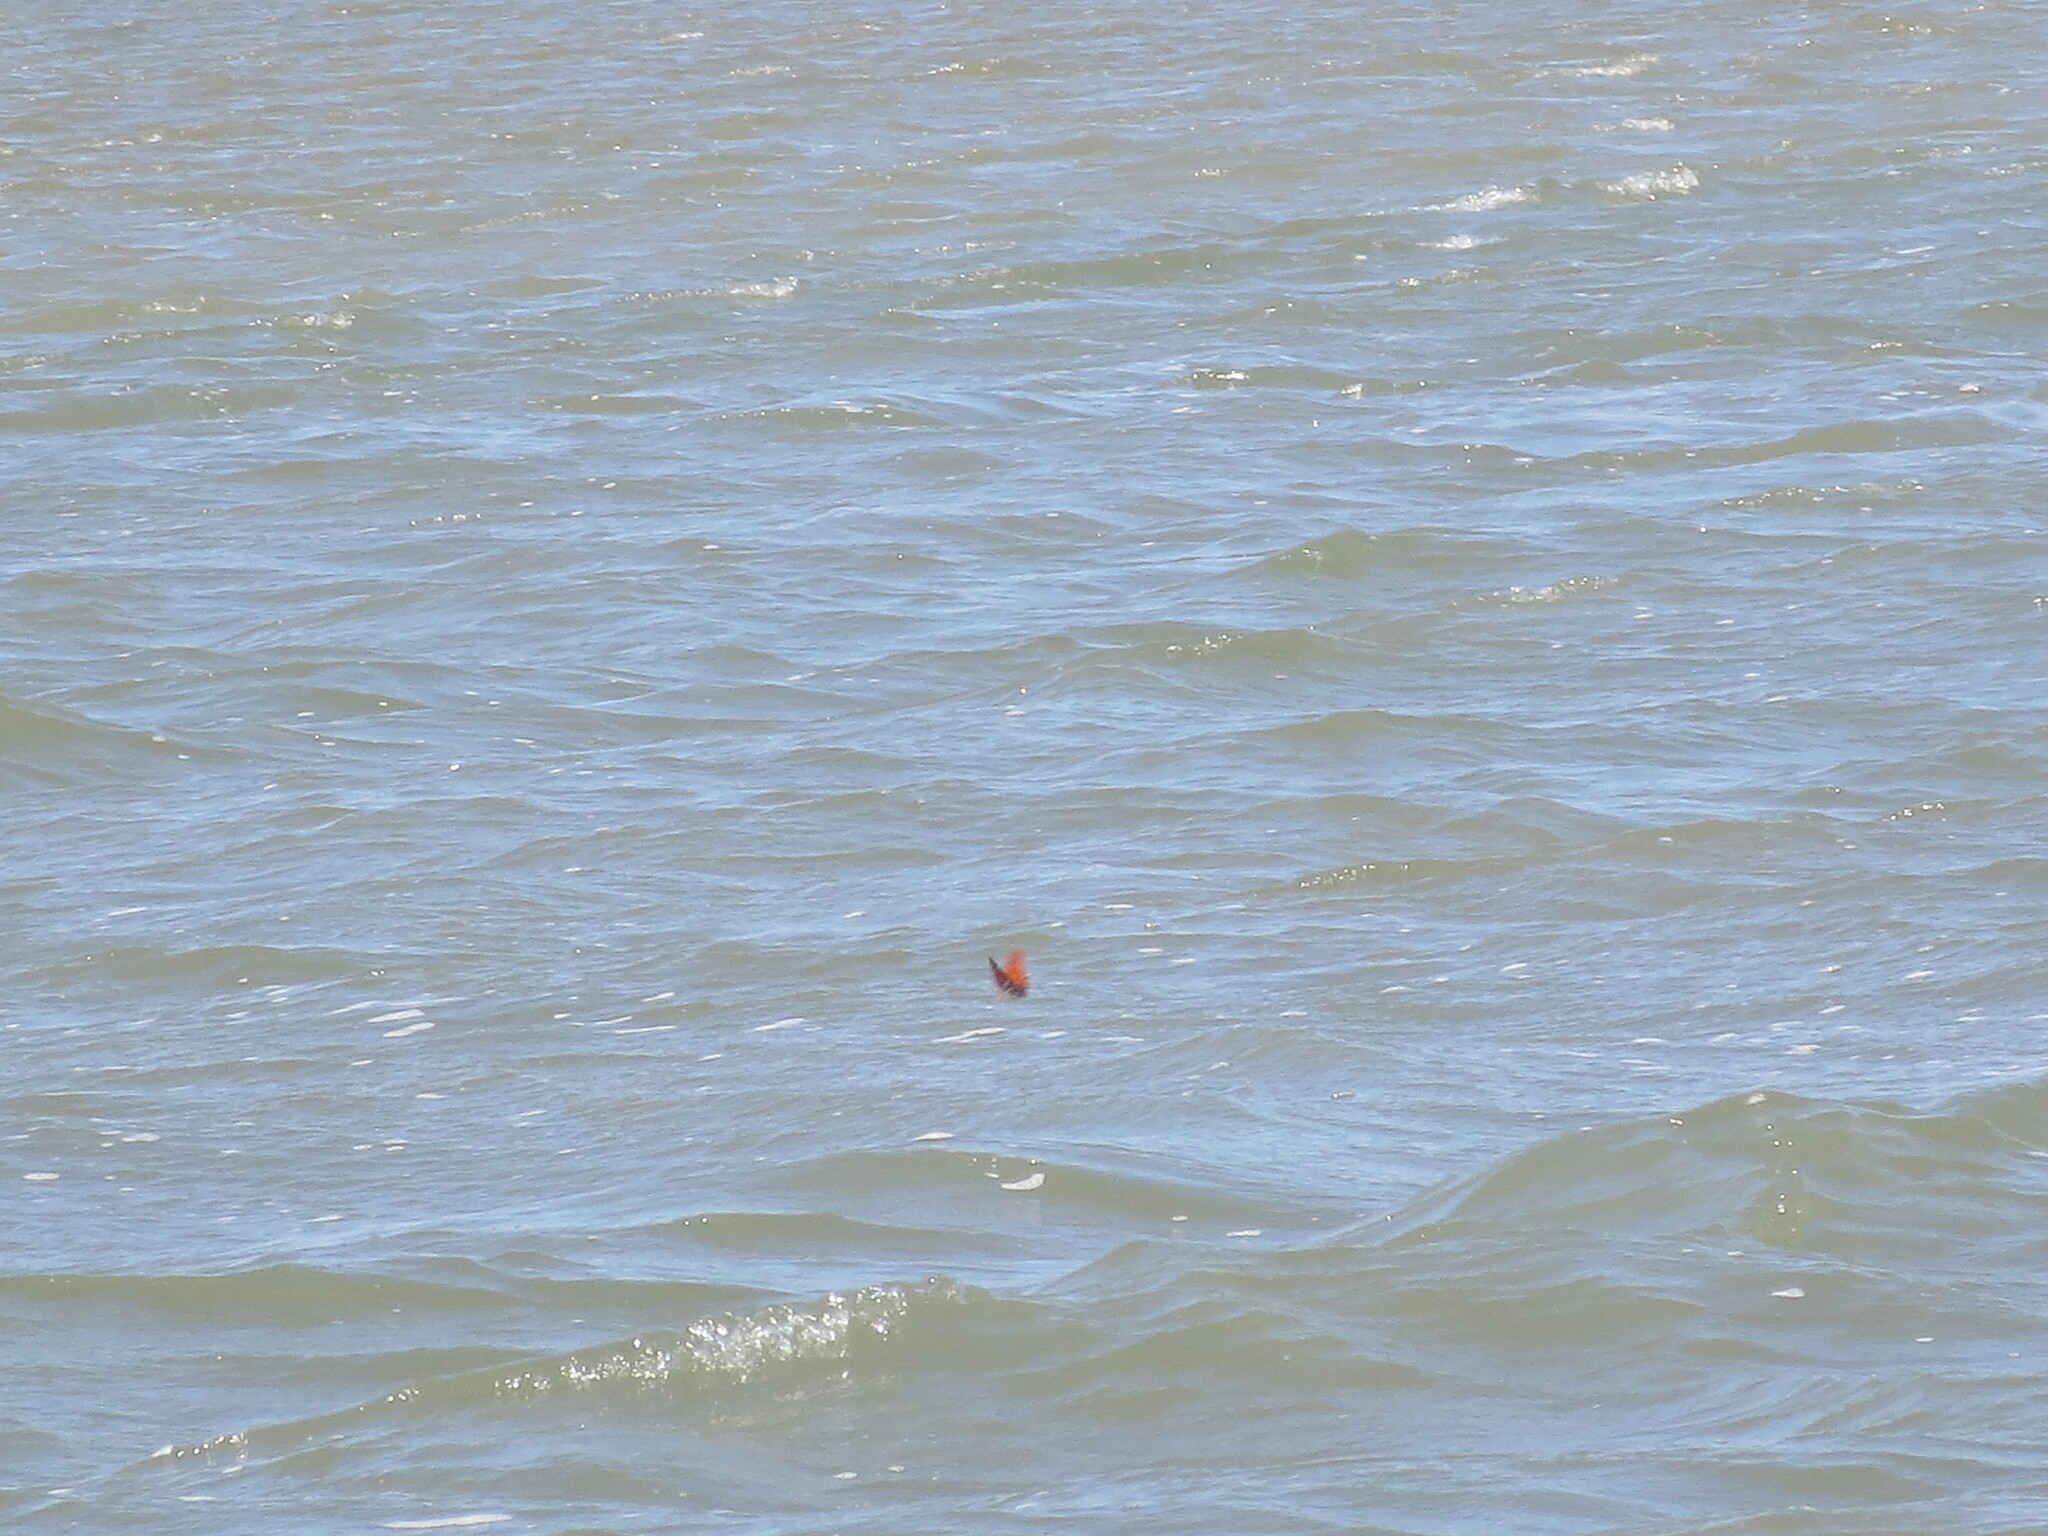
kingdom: Animalia
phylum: Arthropoda
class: Insecta
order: Lepidoptera
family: Nymphalidae
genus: Dione
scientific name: Dione vanillae
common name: Gulf fritillary
